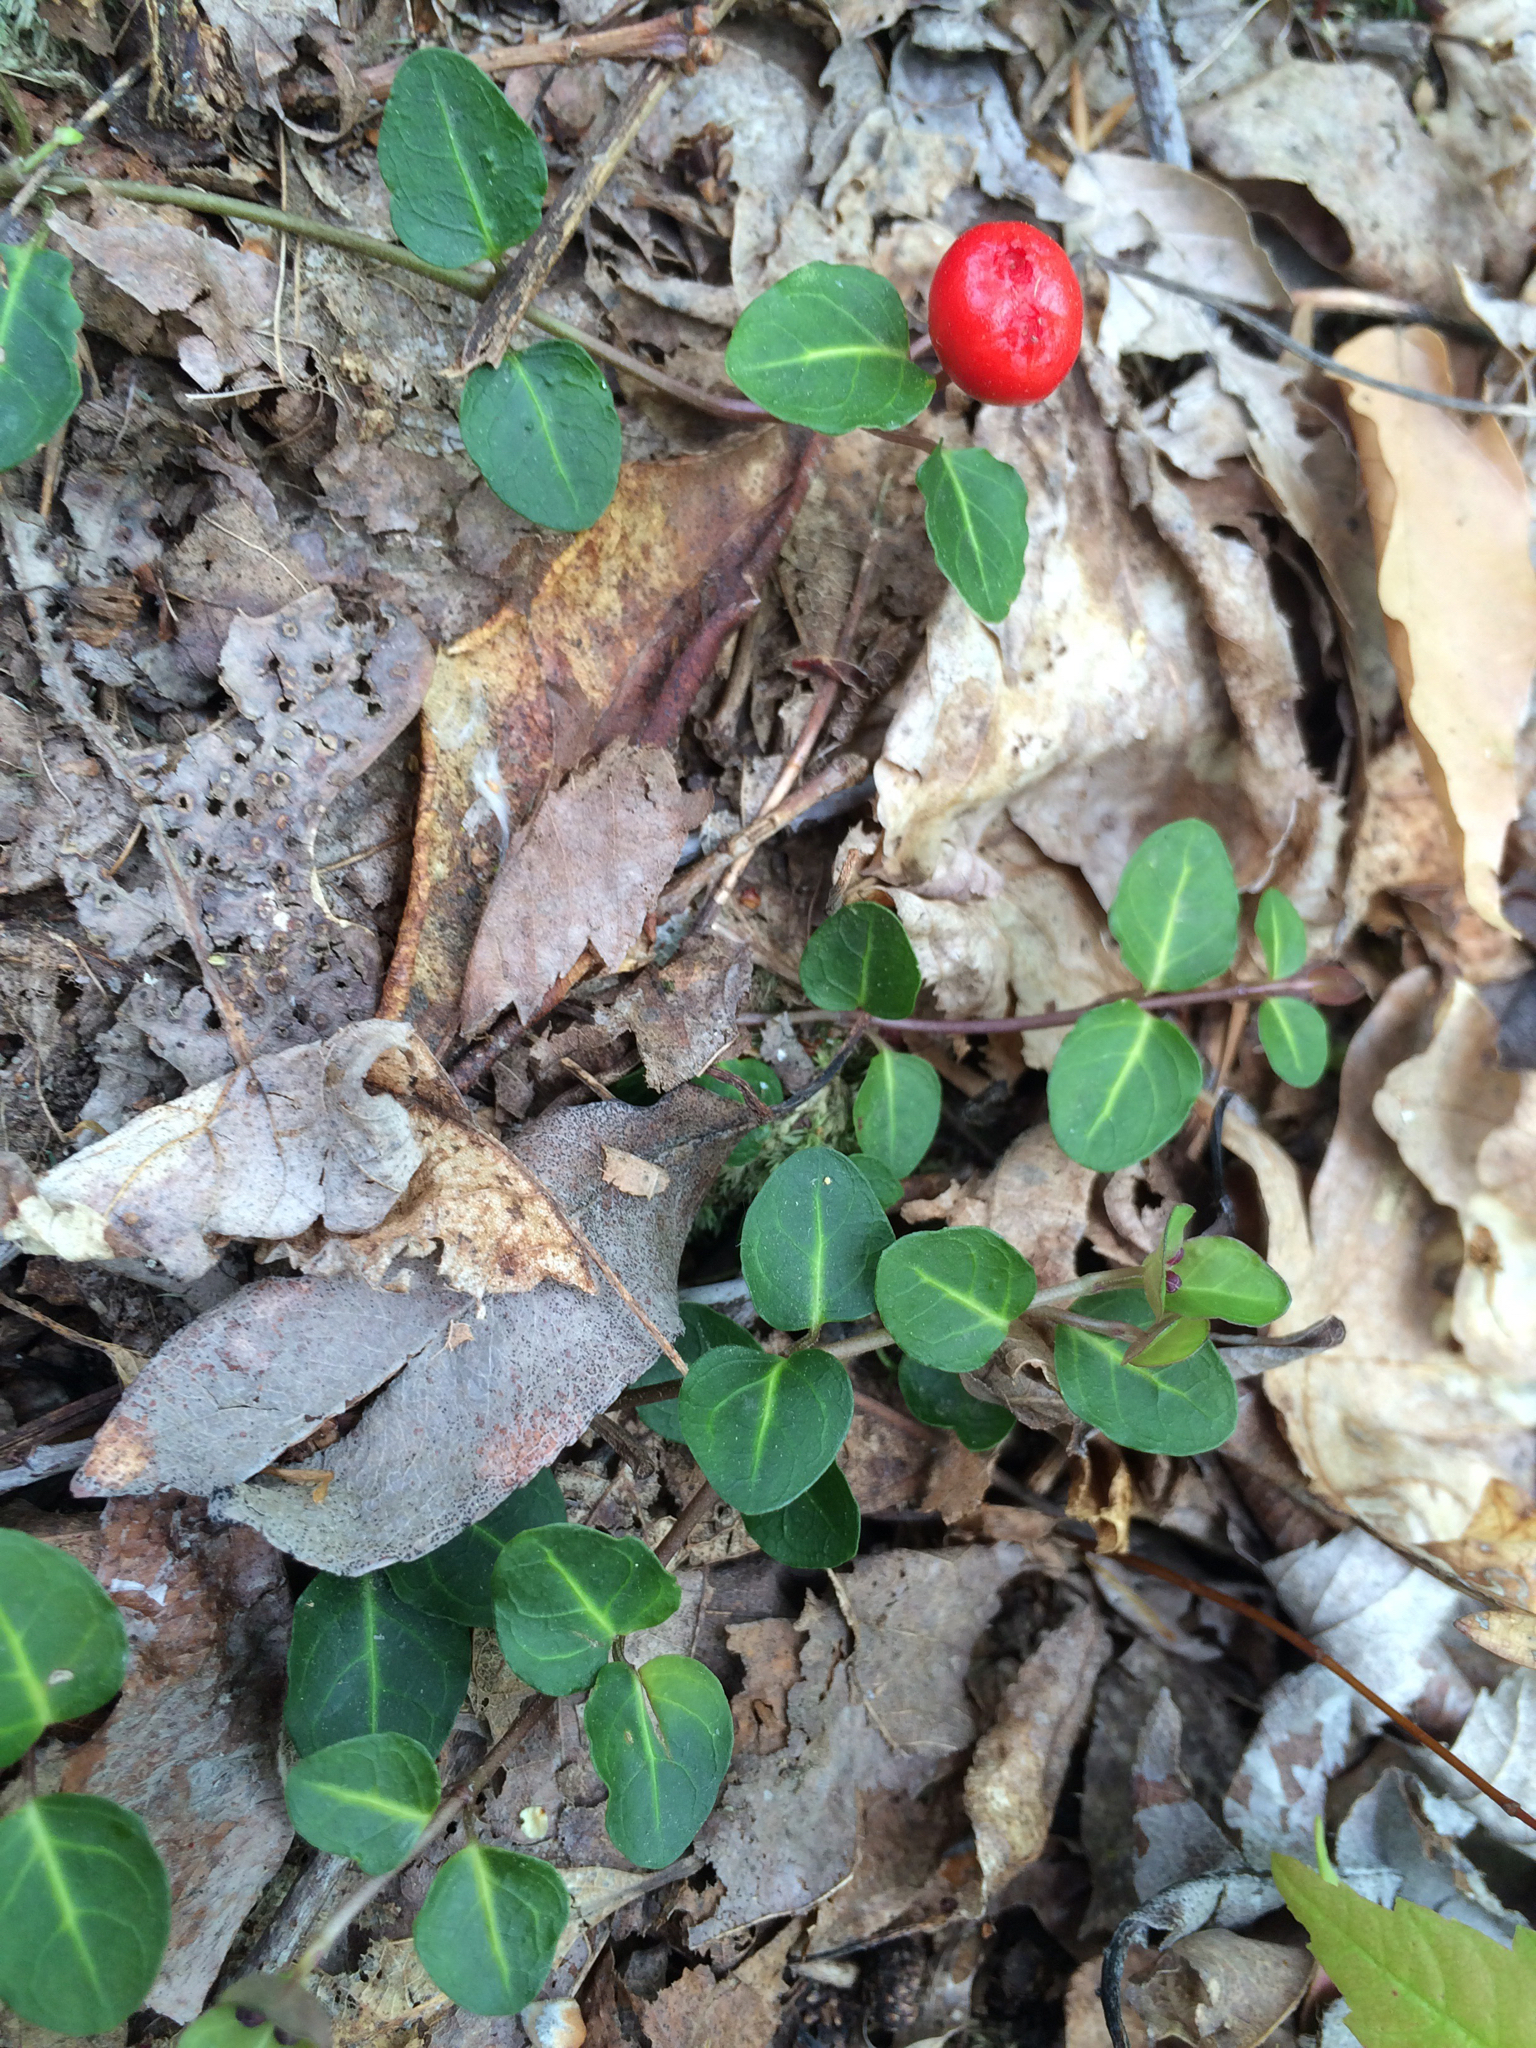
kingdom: Plantae
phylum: Tracheophyta
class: Magnoliopsida
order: Gentianales
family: Rubiaceae
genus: Mitchella
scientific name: Mitchella repens
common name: Partridge-berry
